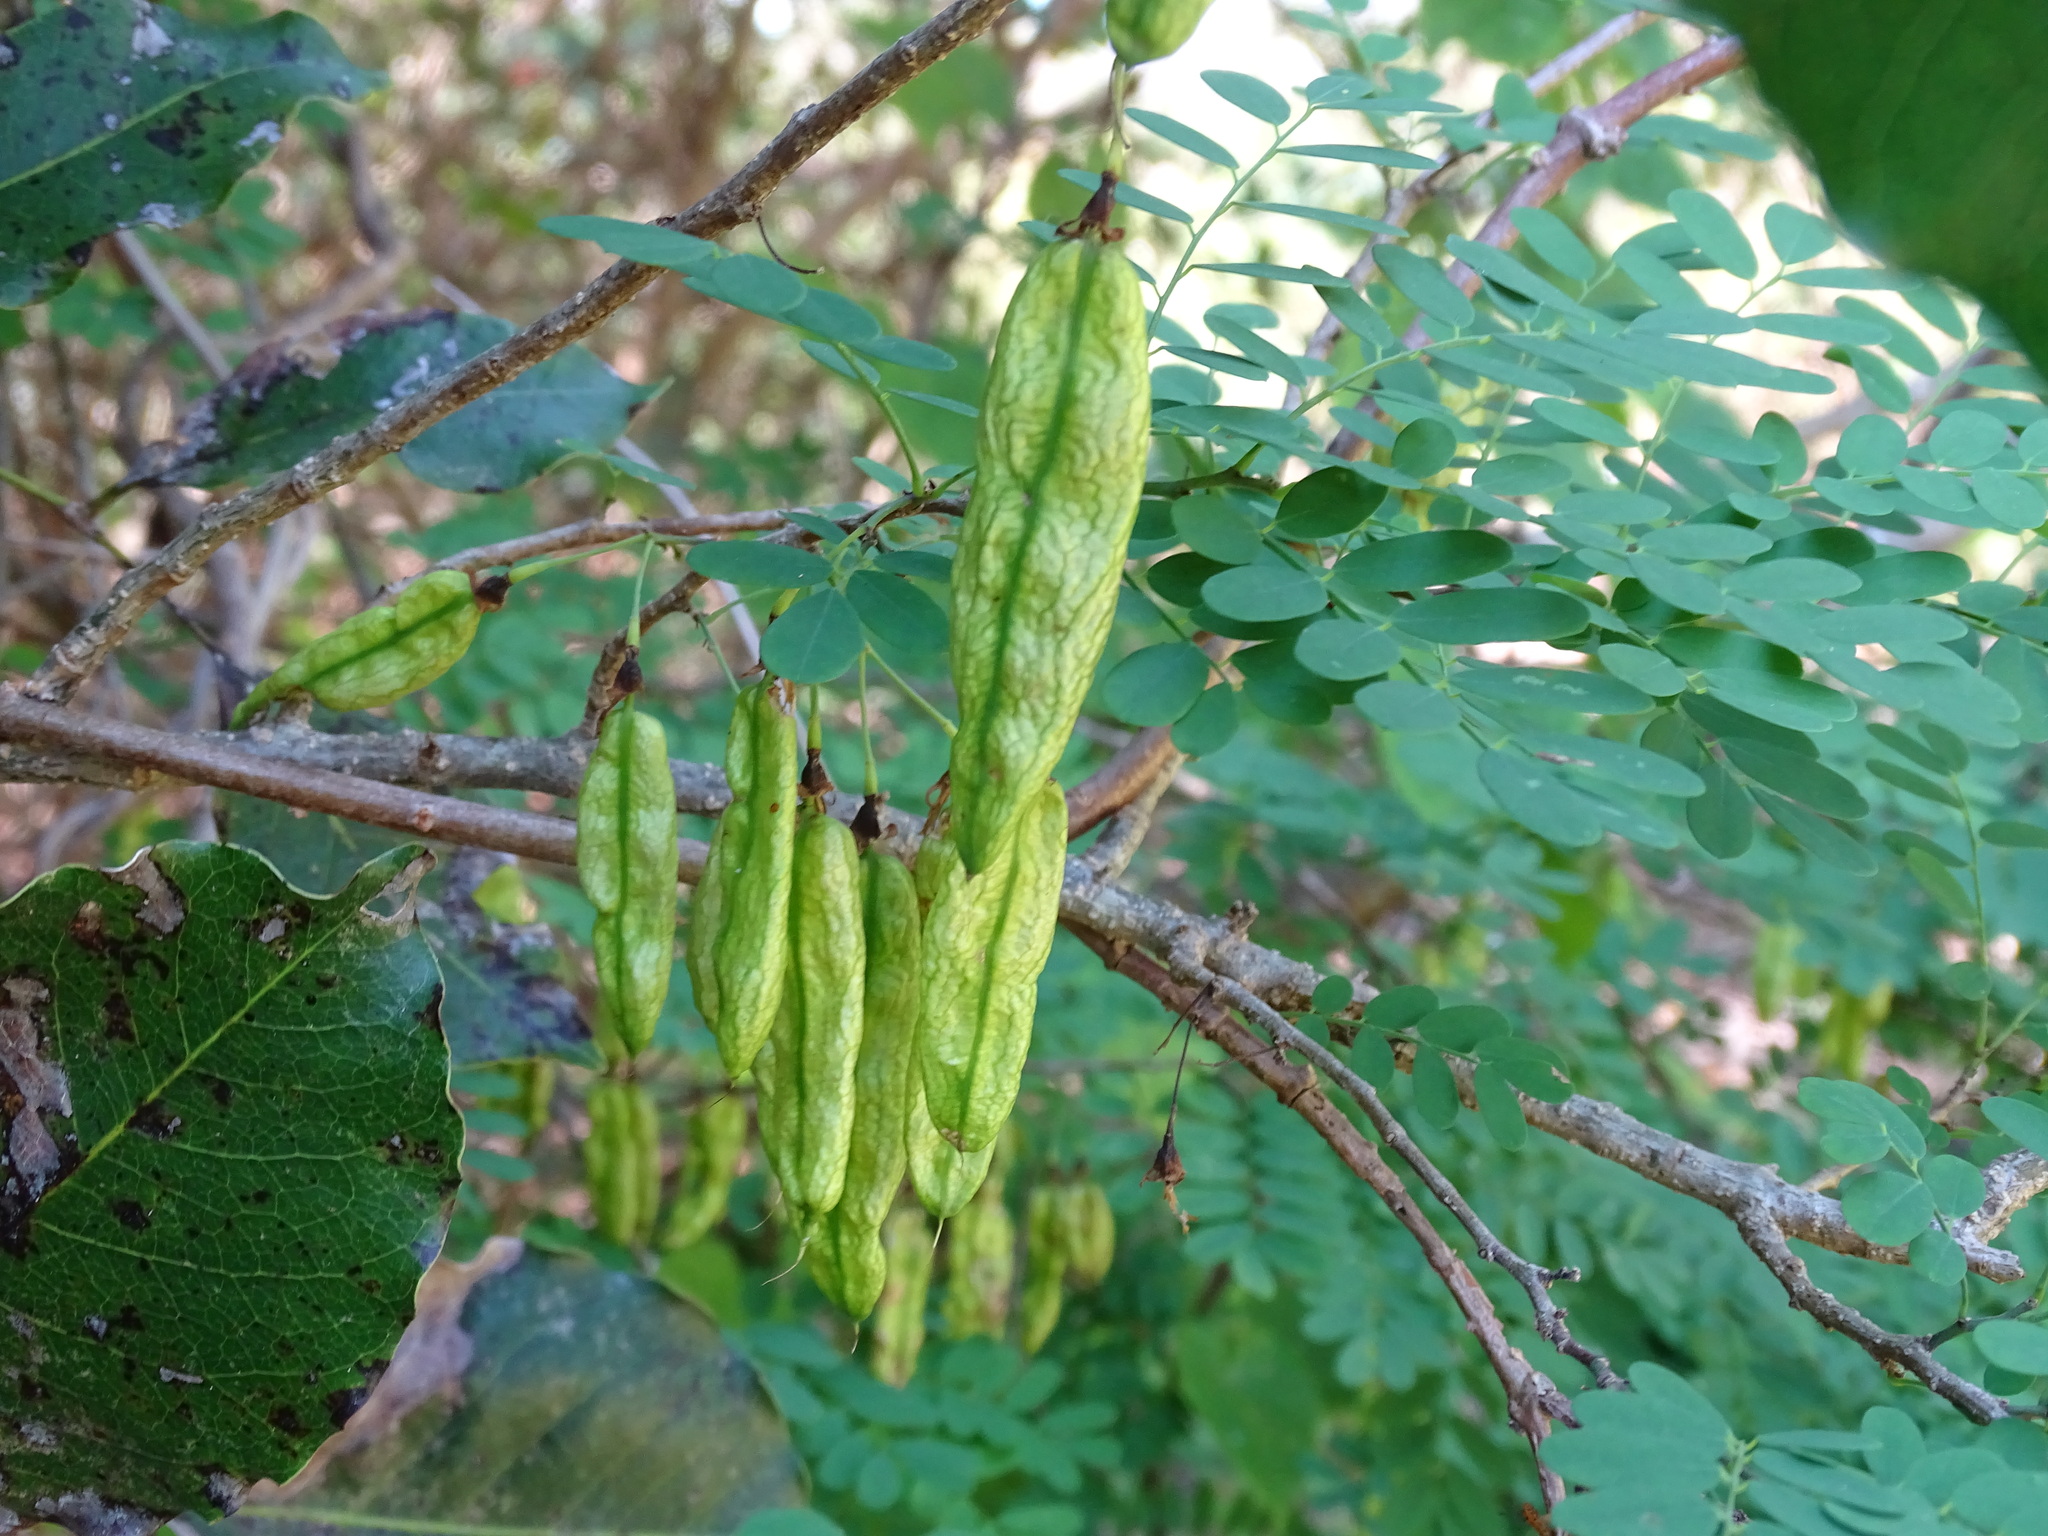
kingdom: Plantae
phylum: Tracheophyta
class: Magnoliopsida
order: Fabales
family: Fabaceae
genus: Diphysa
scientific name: Diphysa americana
